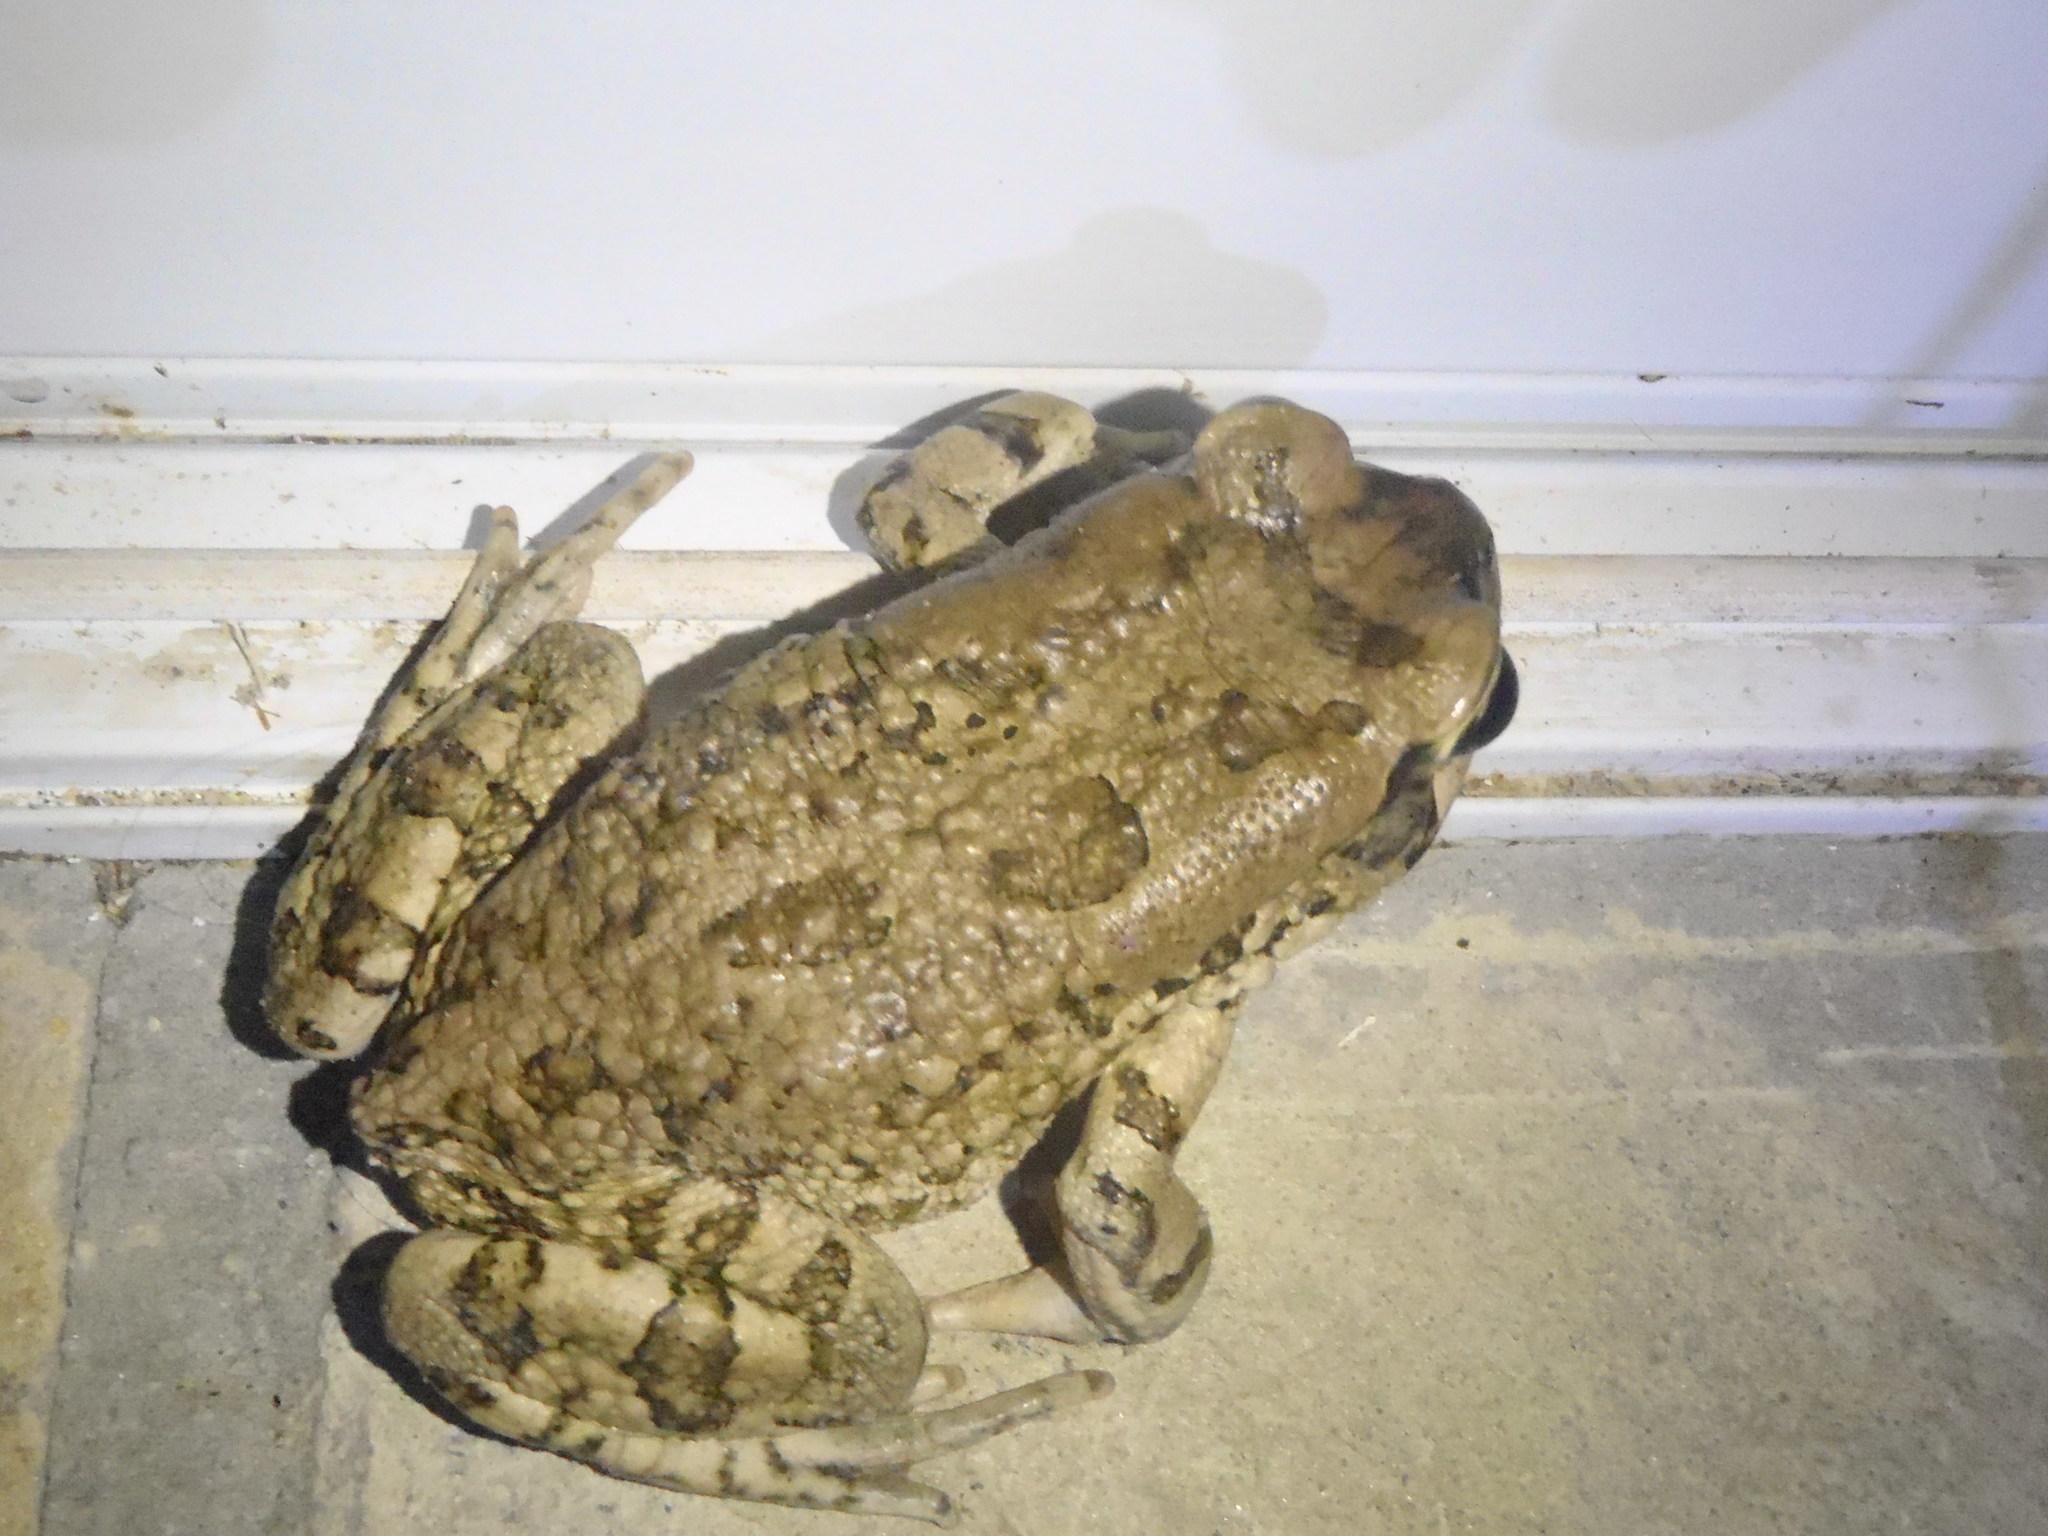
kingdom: Animalia
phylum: Chordata
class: Amphibia
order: Anura
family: Bufonidae
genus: Sclerophrys
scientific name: Sclerophrys capensis
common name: Ranger’s toad
